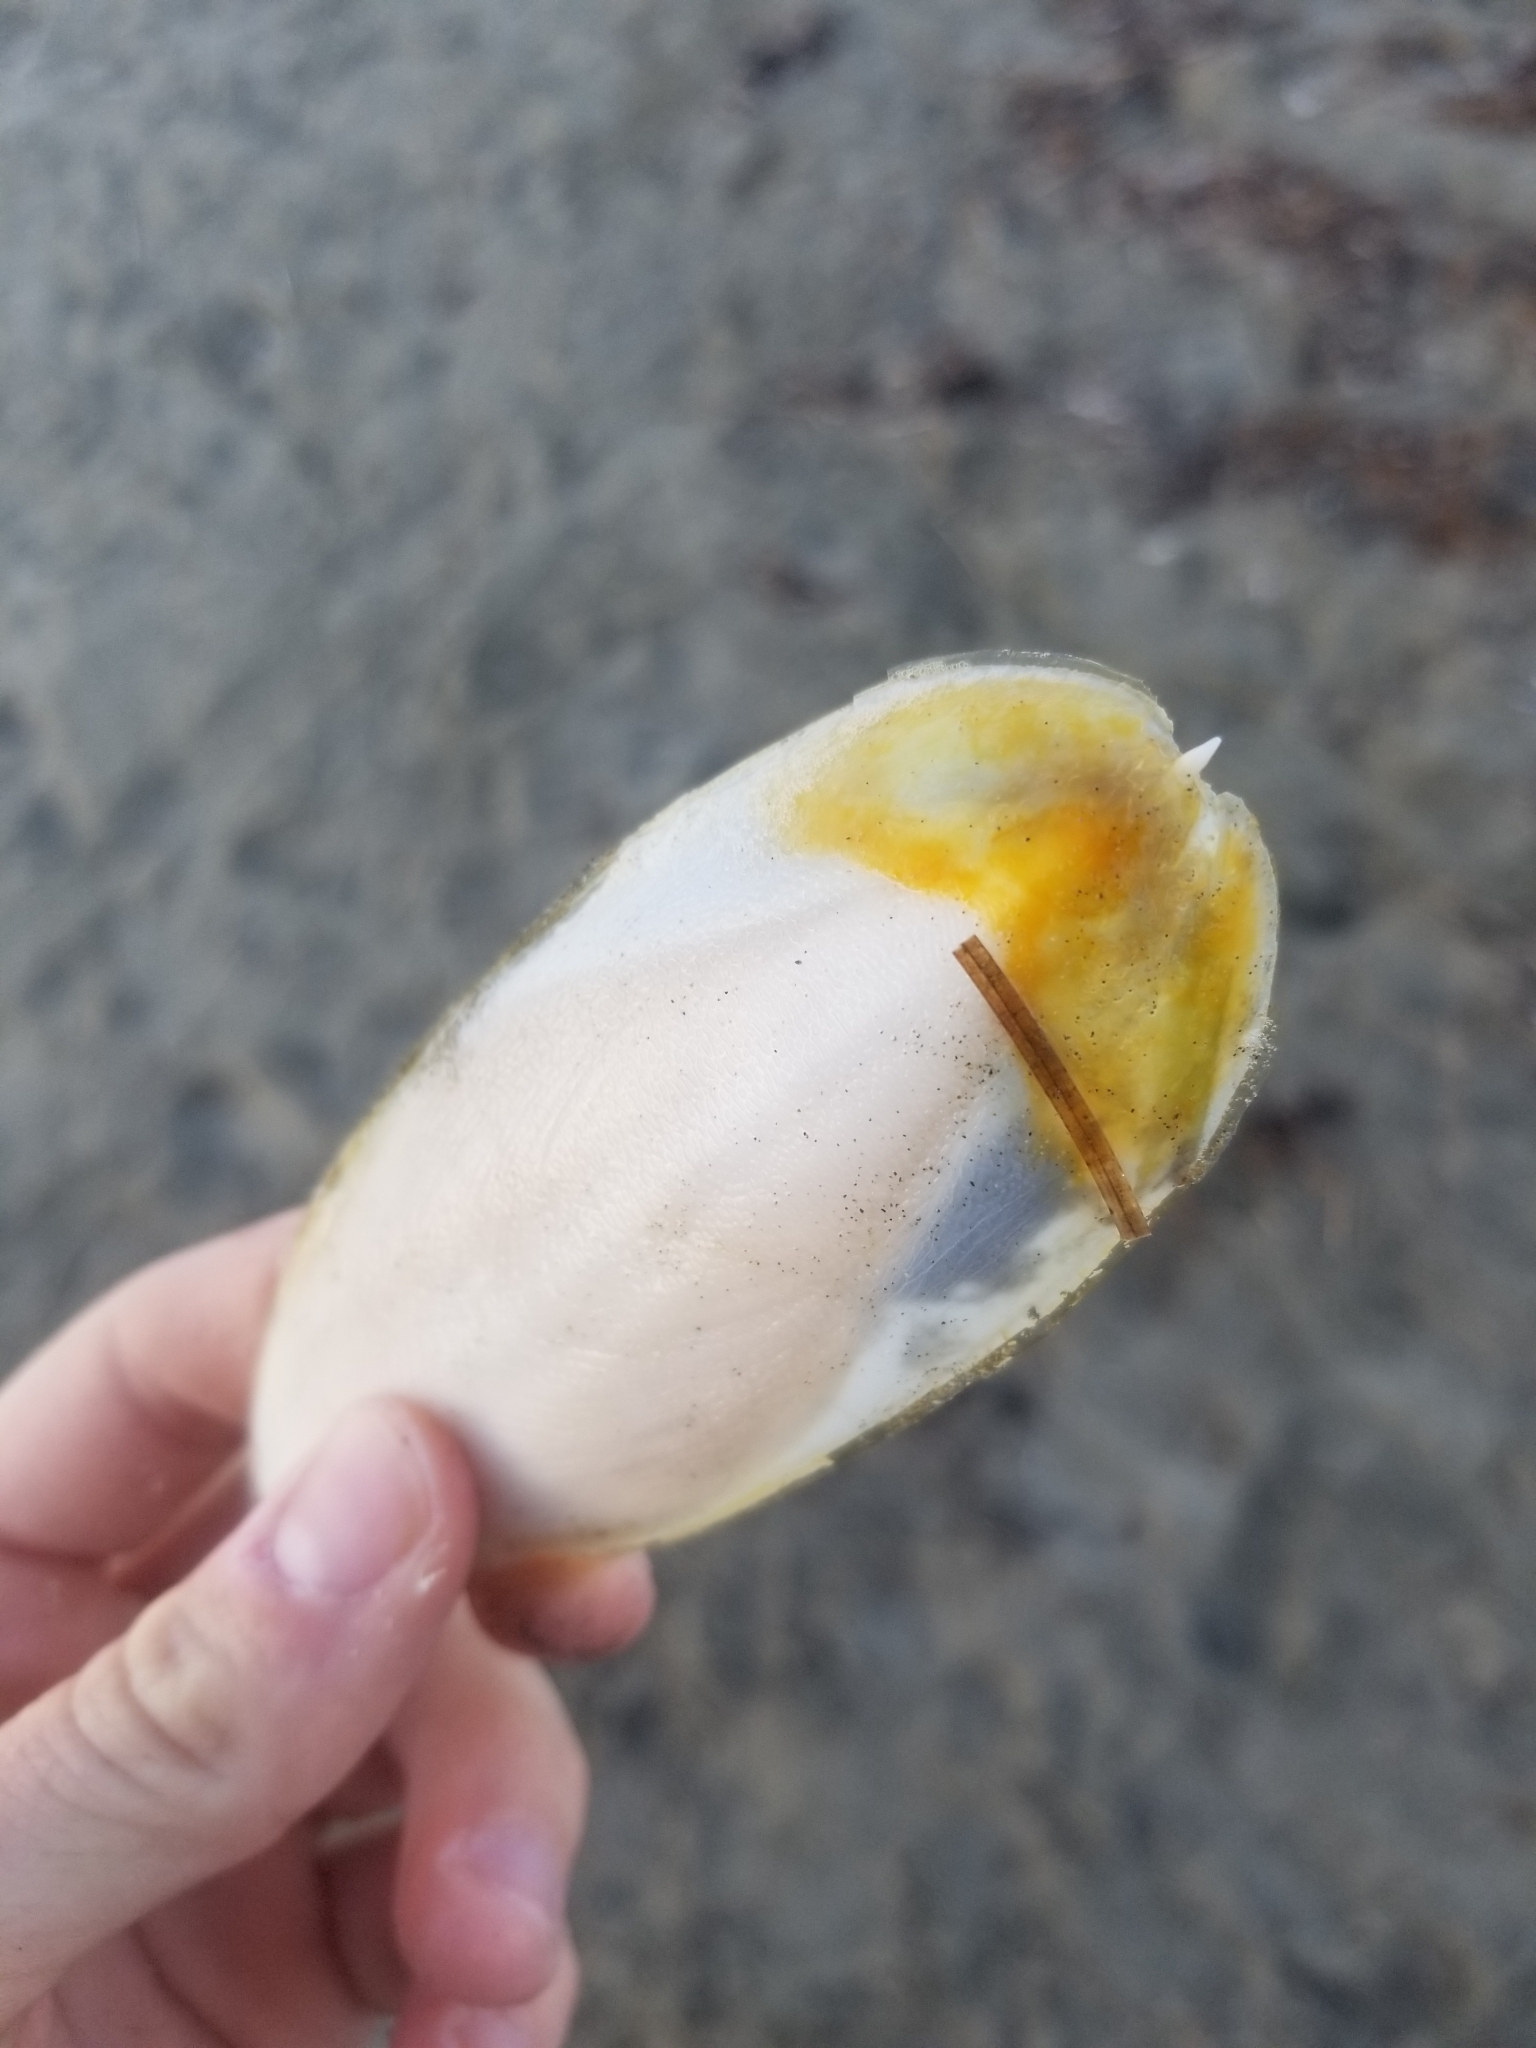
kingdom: Animalia
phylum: Mollusca
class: Cephalopoda
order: Sepiida
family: Sepiidae
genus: Sepia
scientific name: Sepia officinalis
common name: Common cuttlefish
